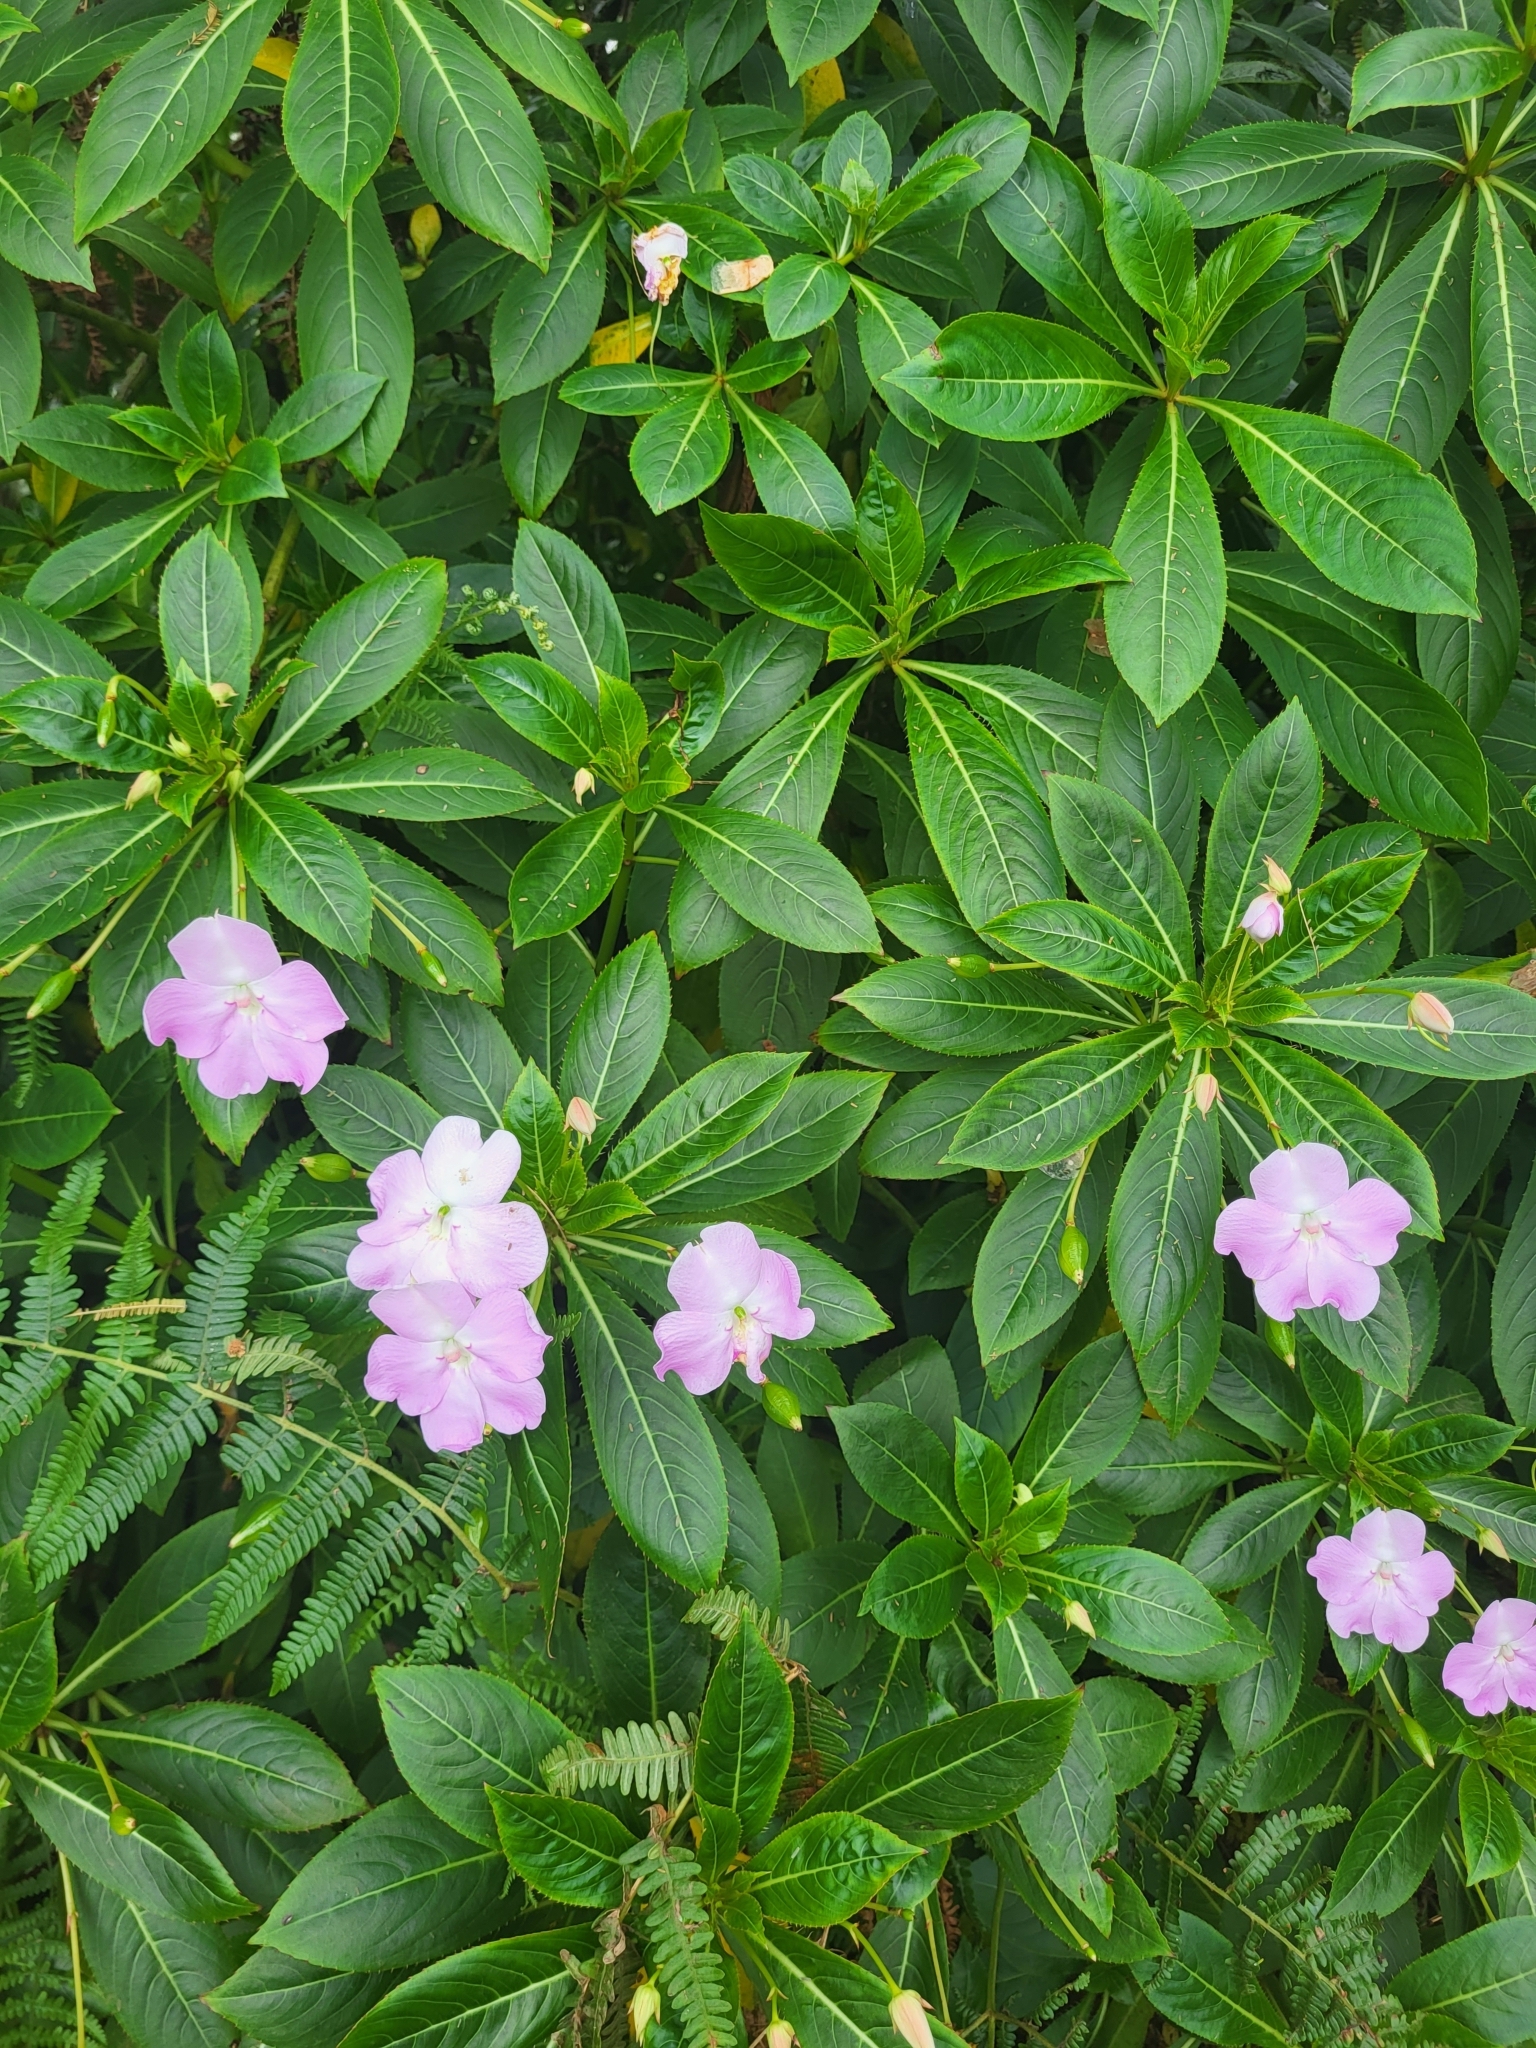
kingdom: Plantae
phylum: Tracheophyta
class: Magnoliopsida
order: Ericales
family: Balsaminaceae
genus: Impatiens
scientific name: Impatiens sodenii
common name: Oliver's touch-me-not
